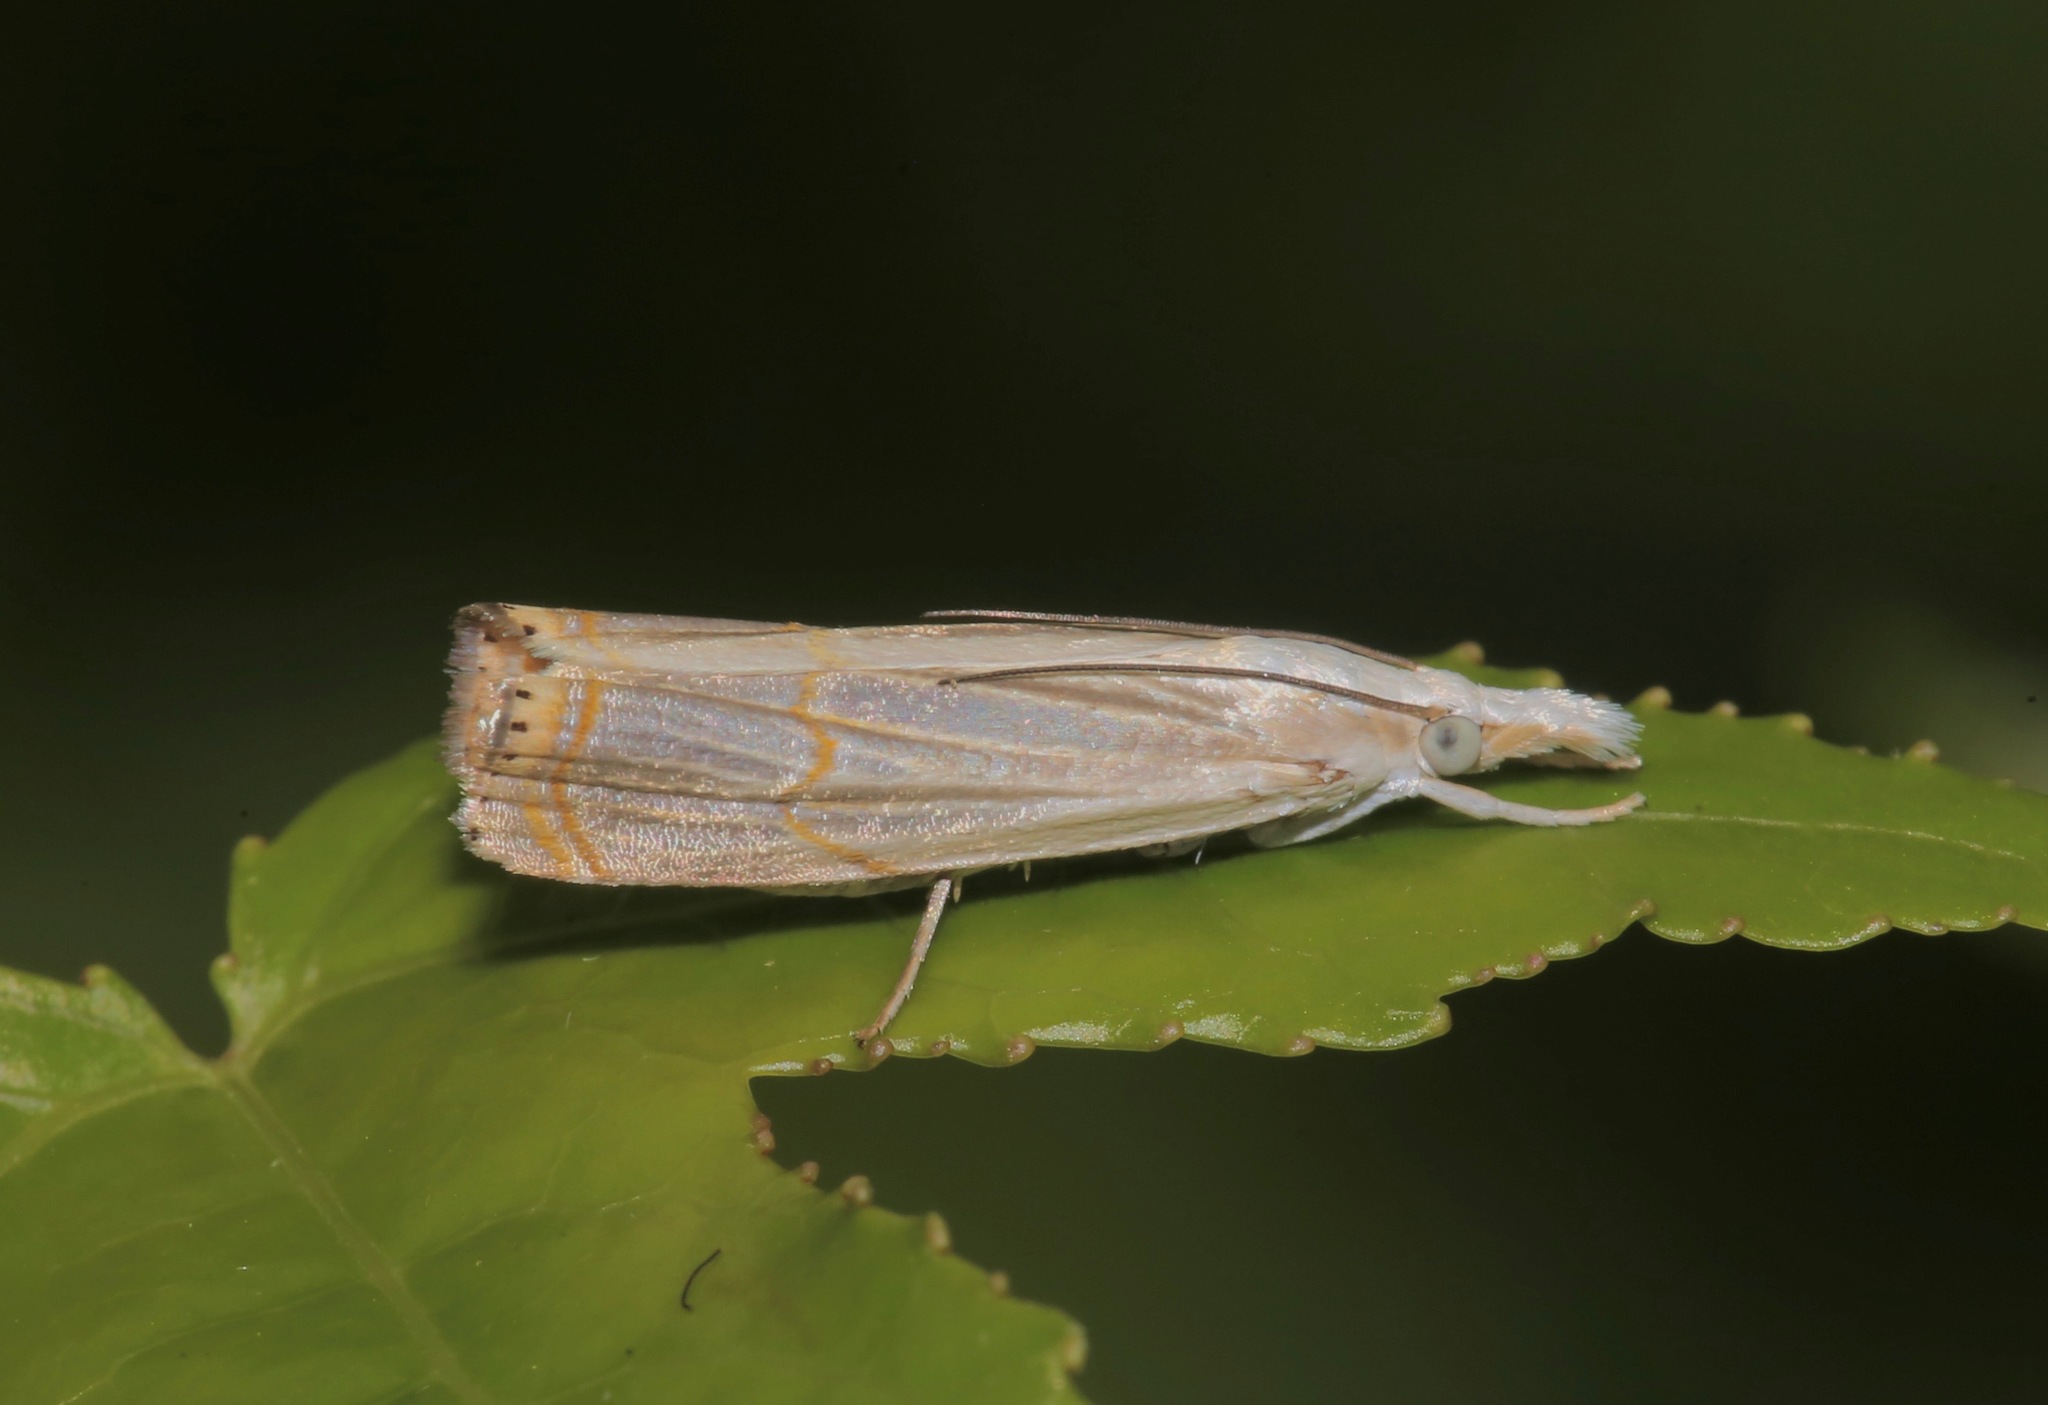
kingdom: Animalia
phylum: Arthropoda
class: Insecta
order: Lepidoptera
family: Crambidae
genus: Parapediasia
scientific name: Parapediasia decorellus
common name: Graceful grass-veneer
